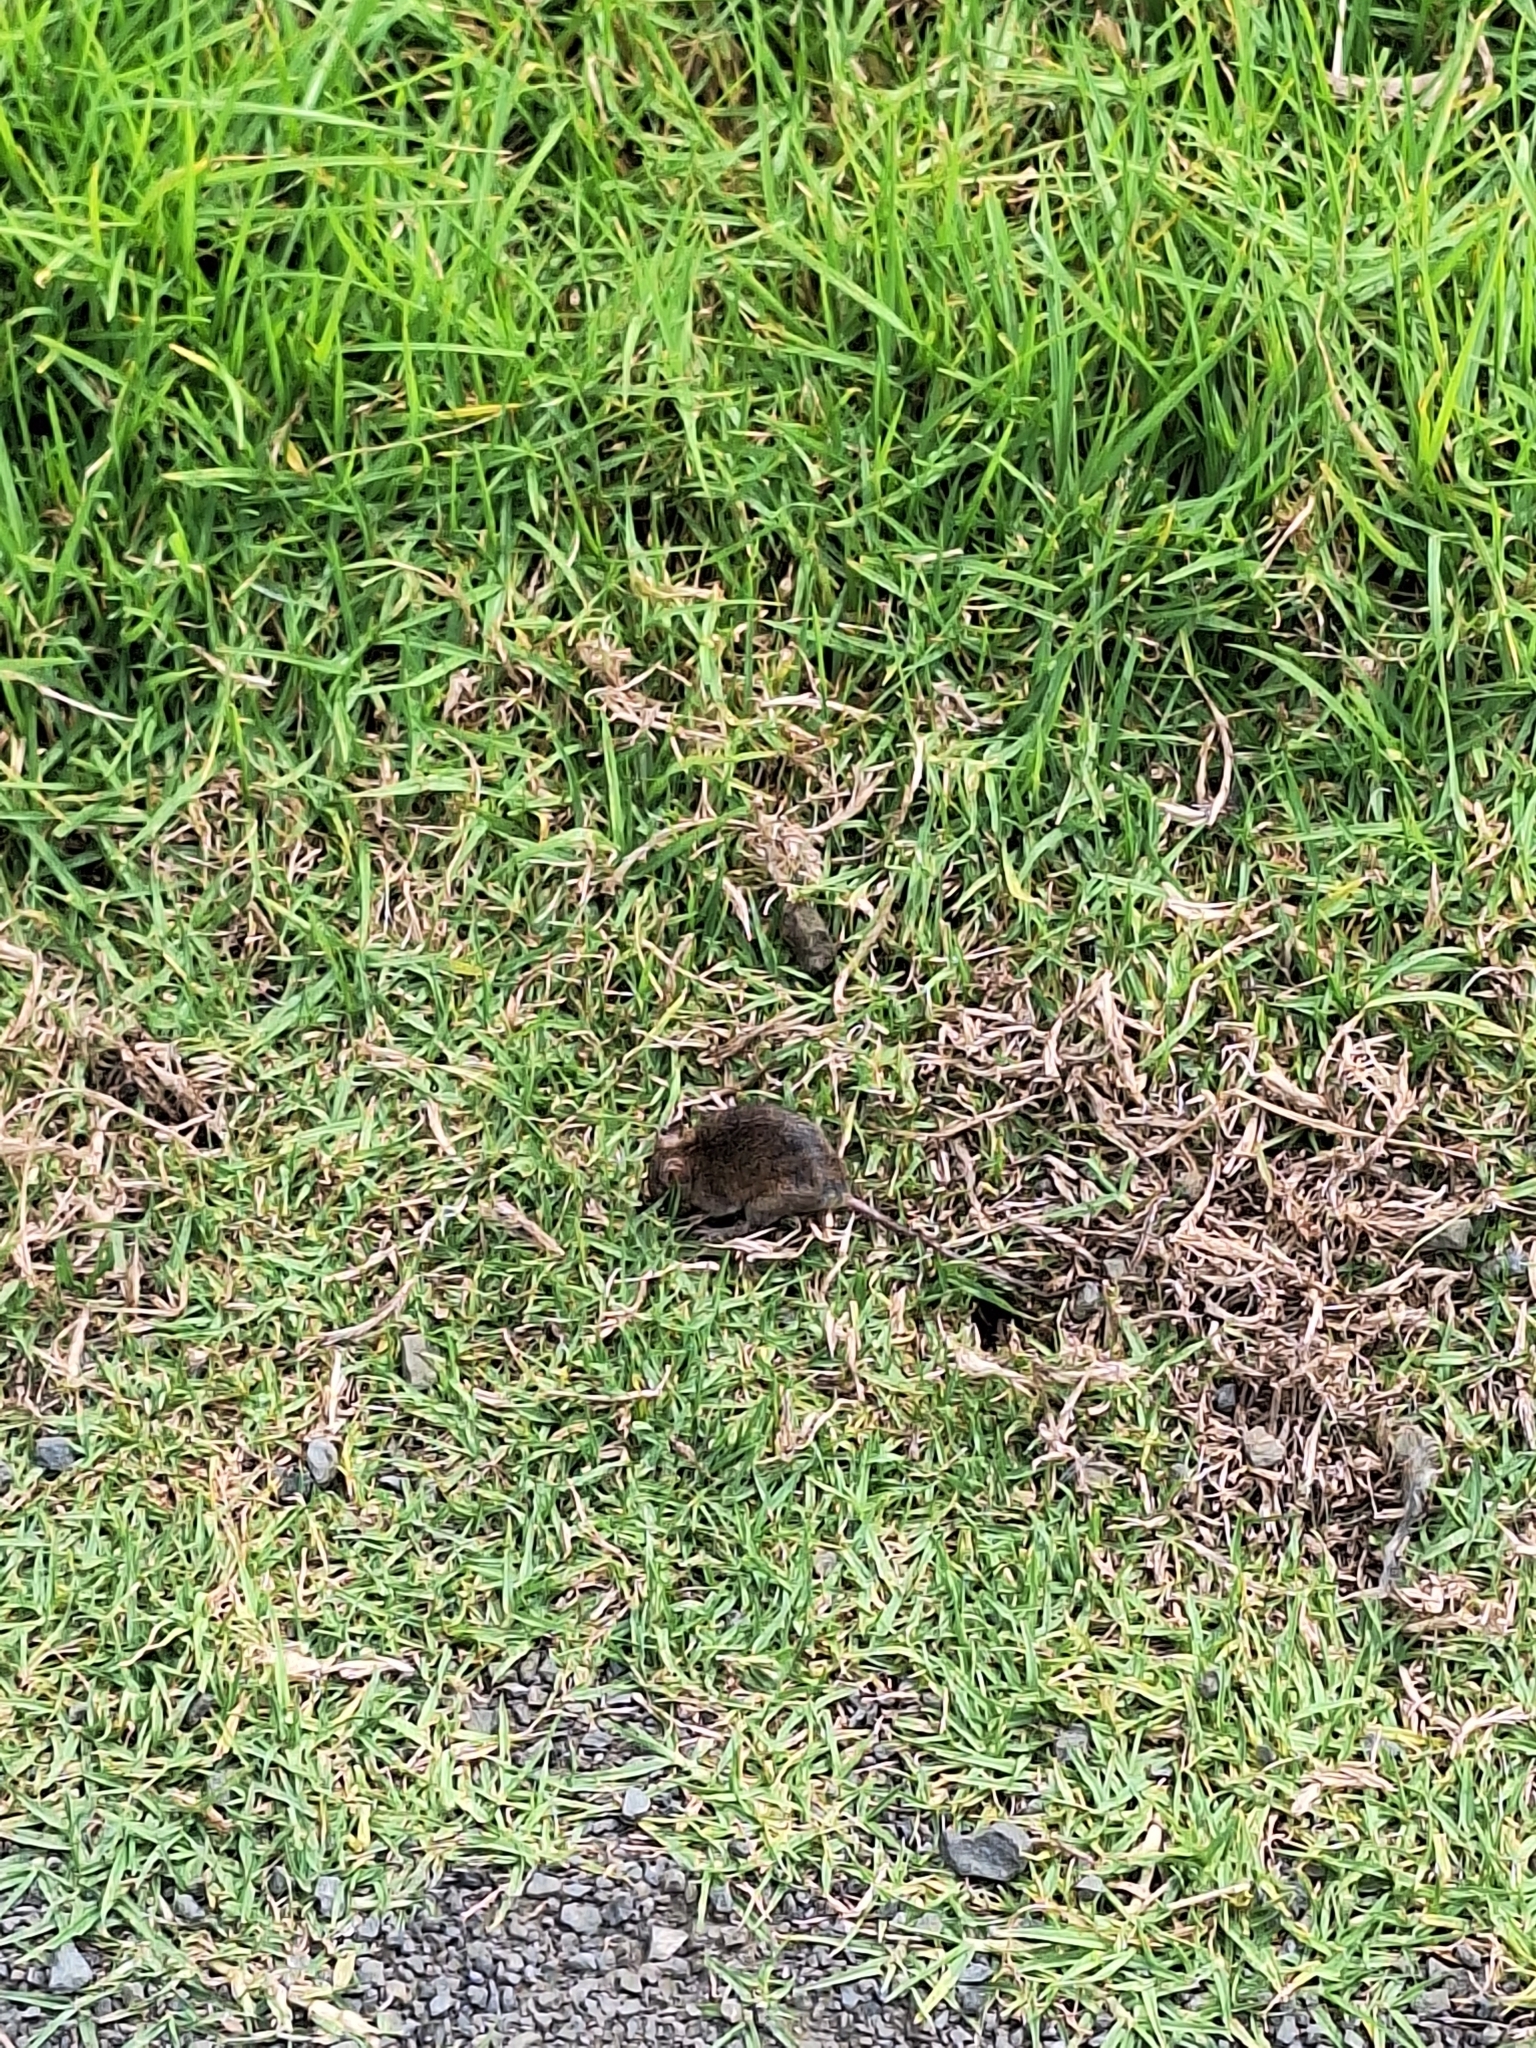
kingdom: Animalia
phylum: Chordata
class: Mammalia
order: Rodentia
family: Muridae
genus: Mus
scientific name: Mus musculus
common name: House mouse
